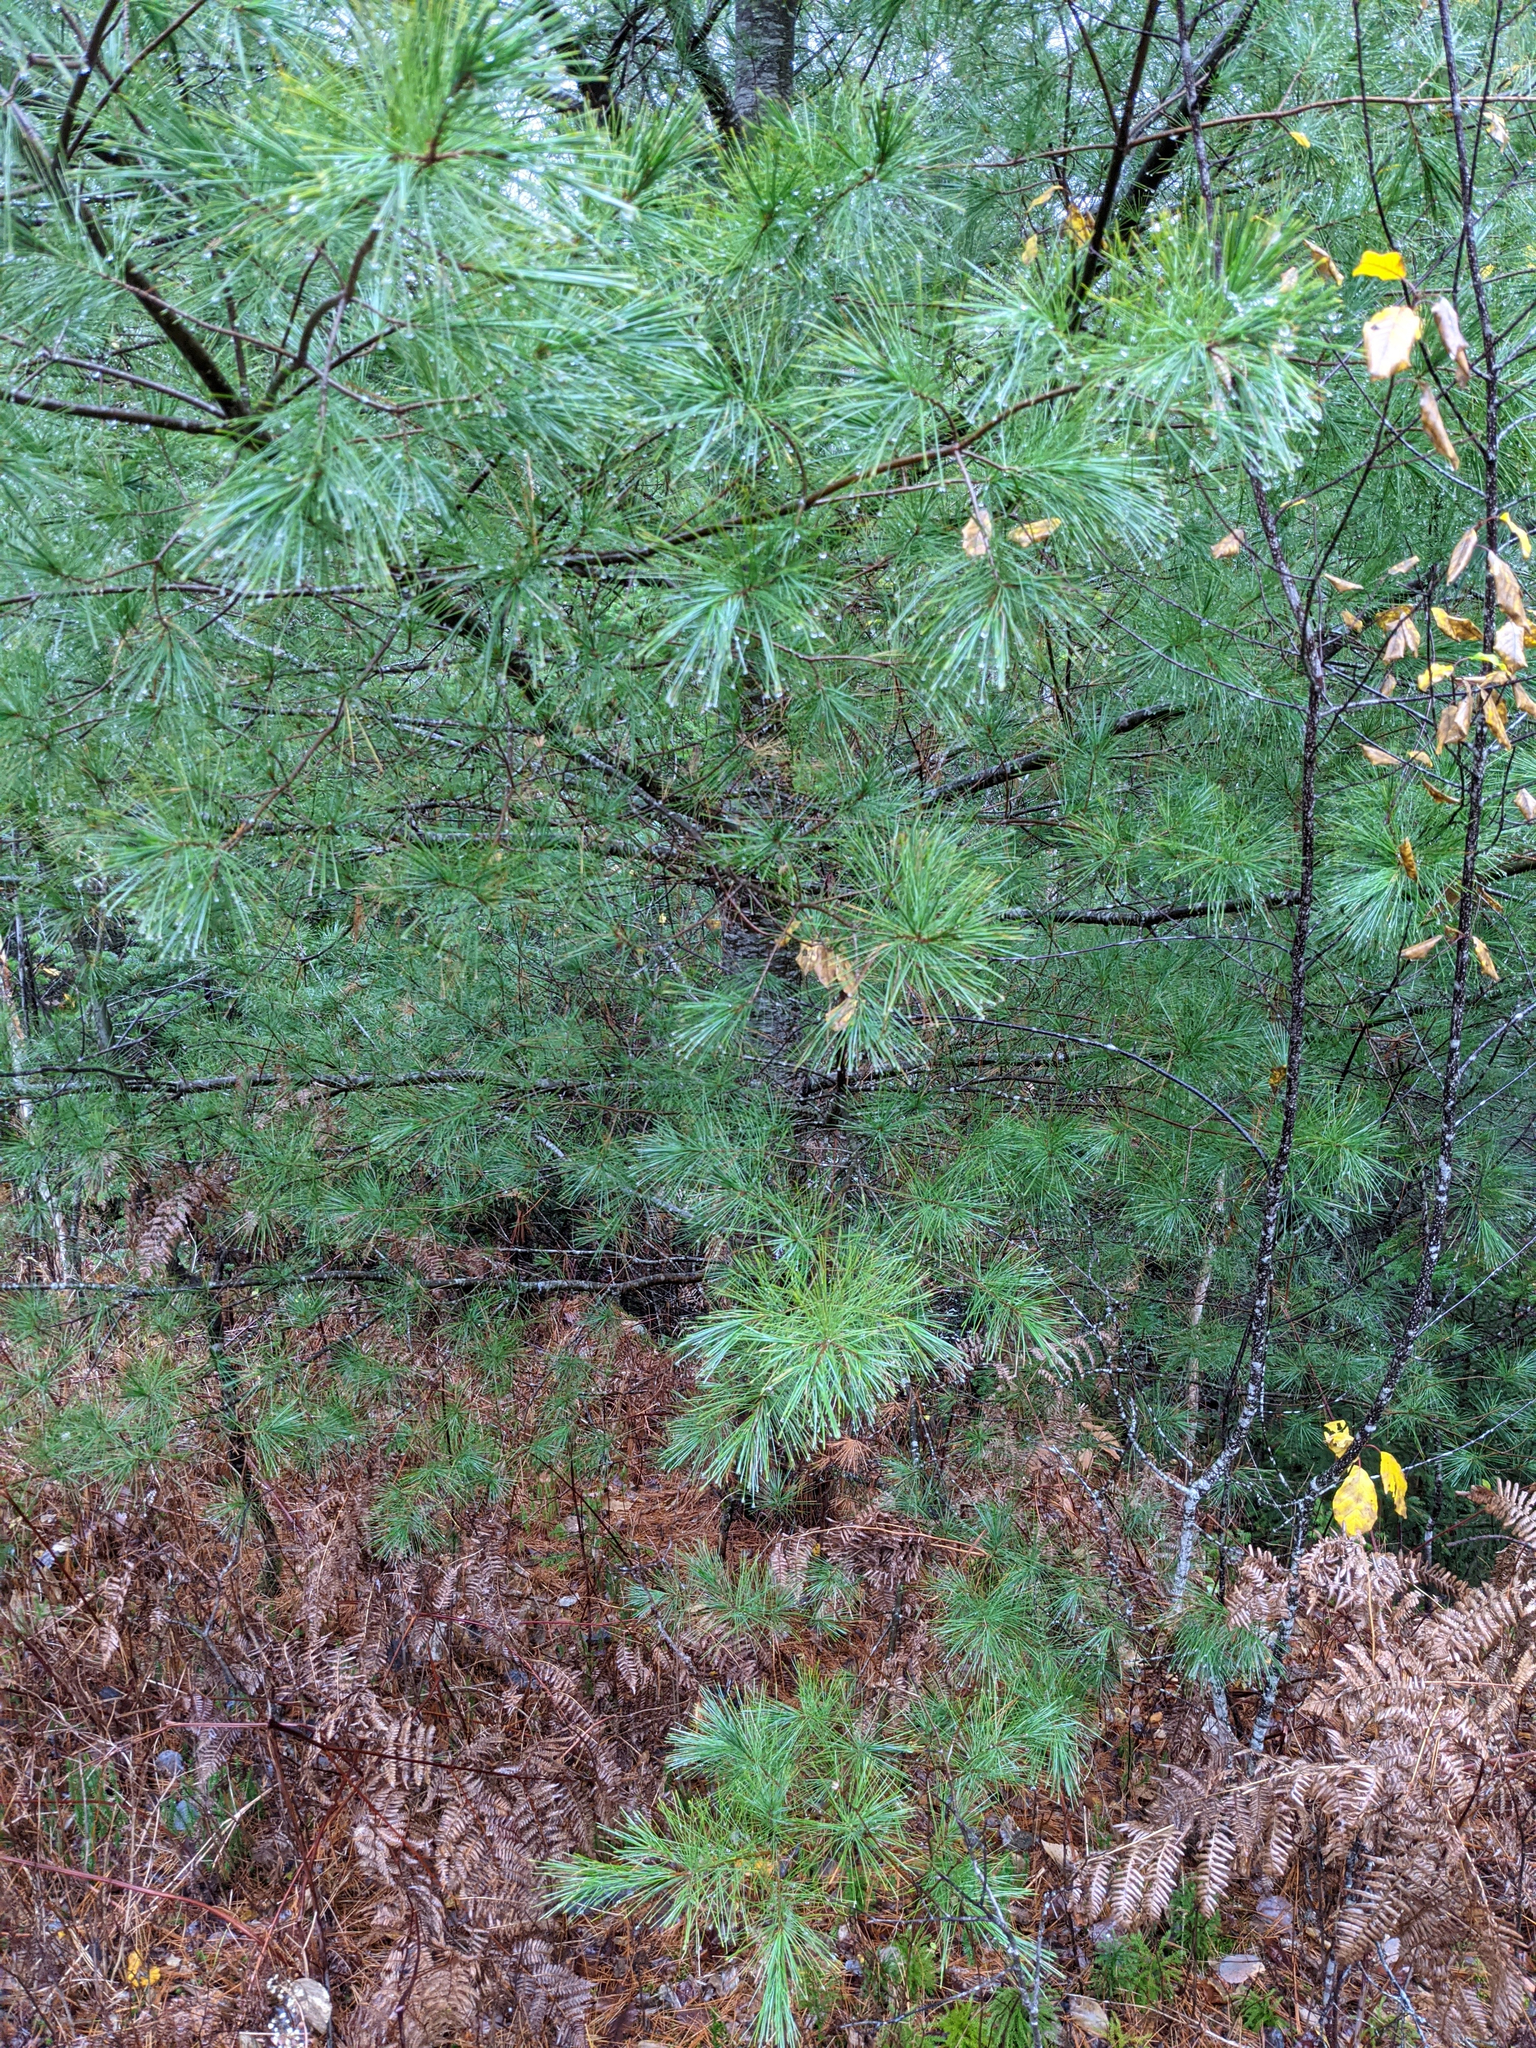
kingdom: Plantae
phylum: Tracheophyta
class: Pinopsida
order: Pinales
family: Pinaceae
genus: Pinus
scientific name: Pinus strobus
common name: Weymouth pine
